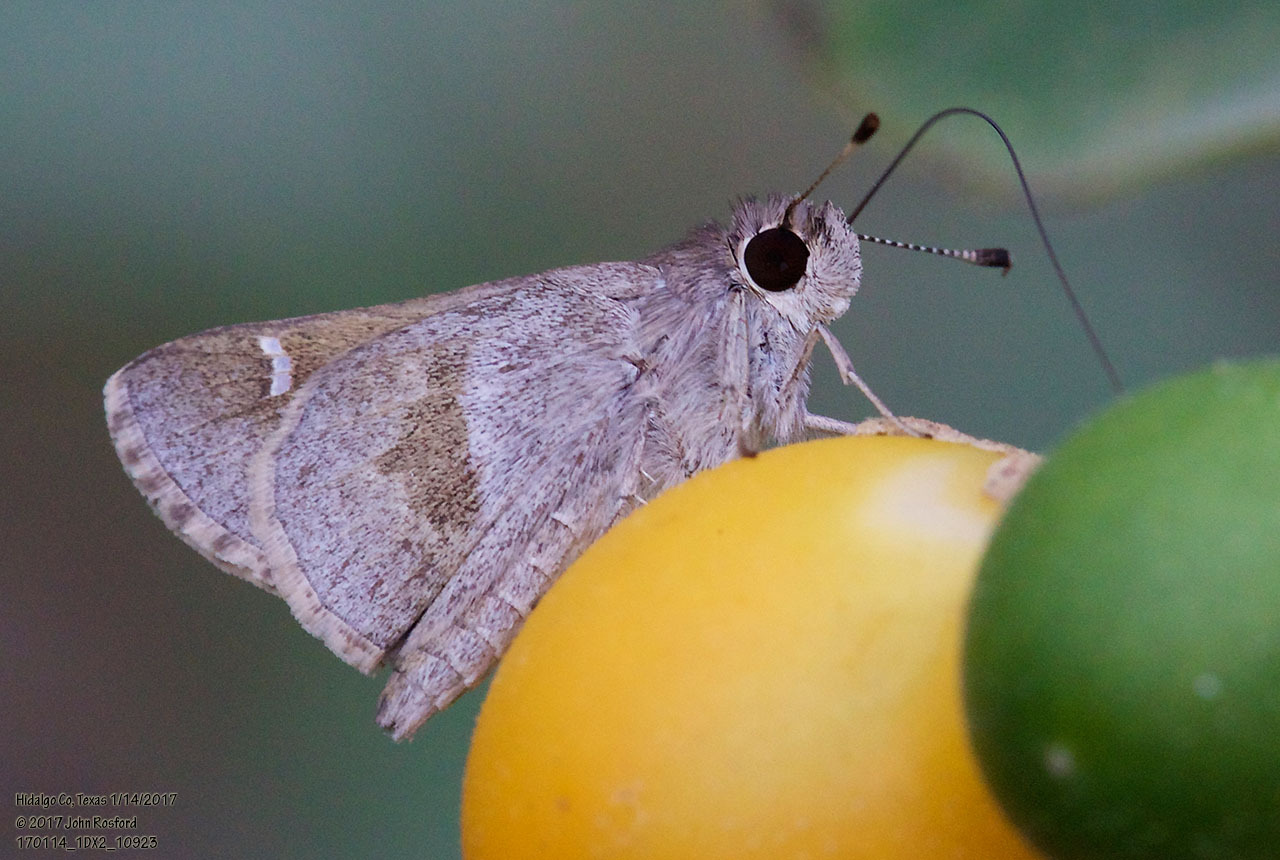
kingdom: Animalia
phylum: Arthropoda
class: Insecta
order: Lepidoptera
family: Hesperiidae
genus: Lerodea
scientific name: Lerodea arabus
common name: Violet-clouded skipper
